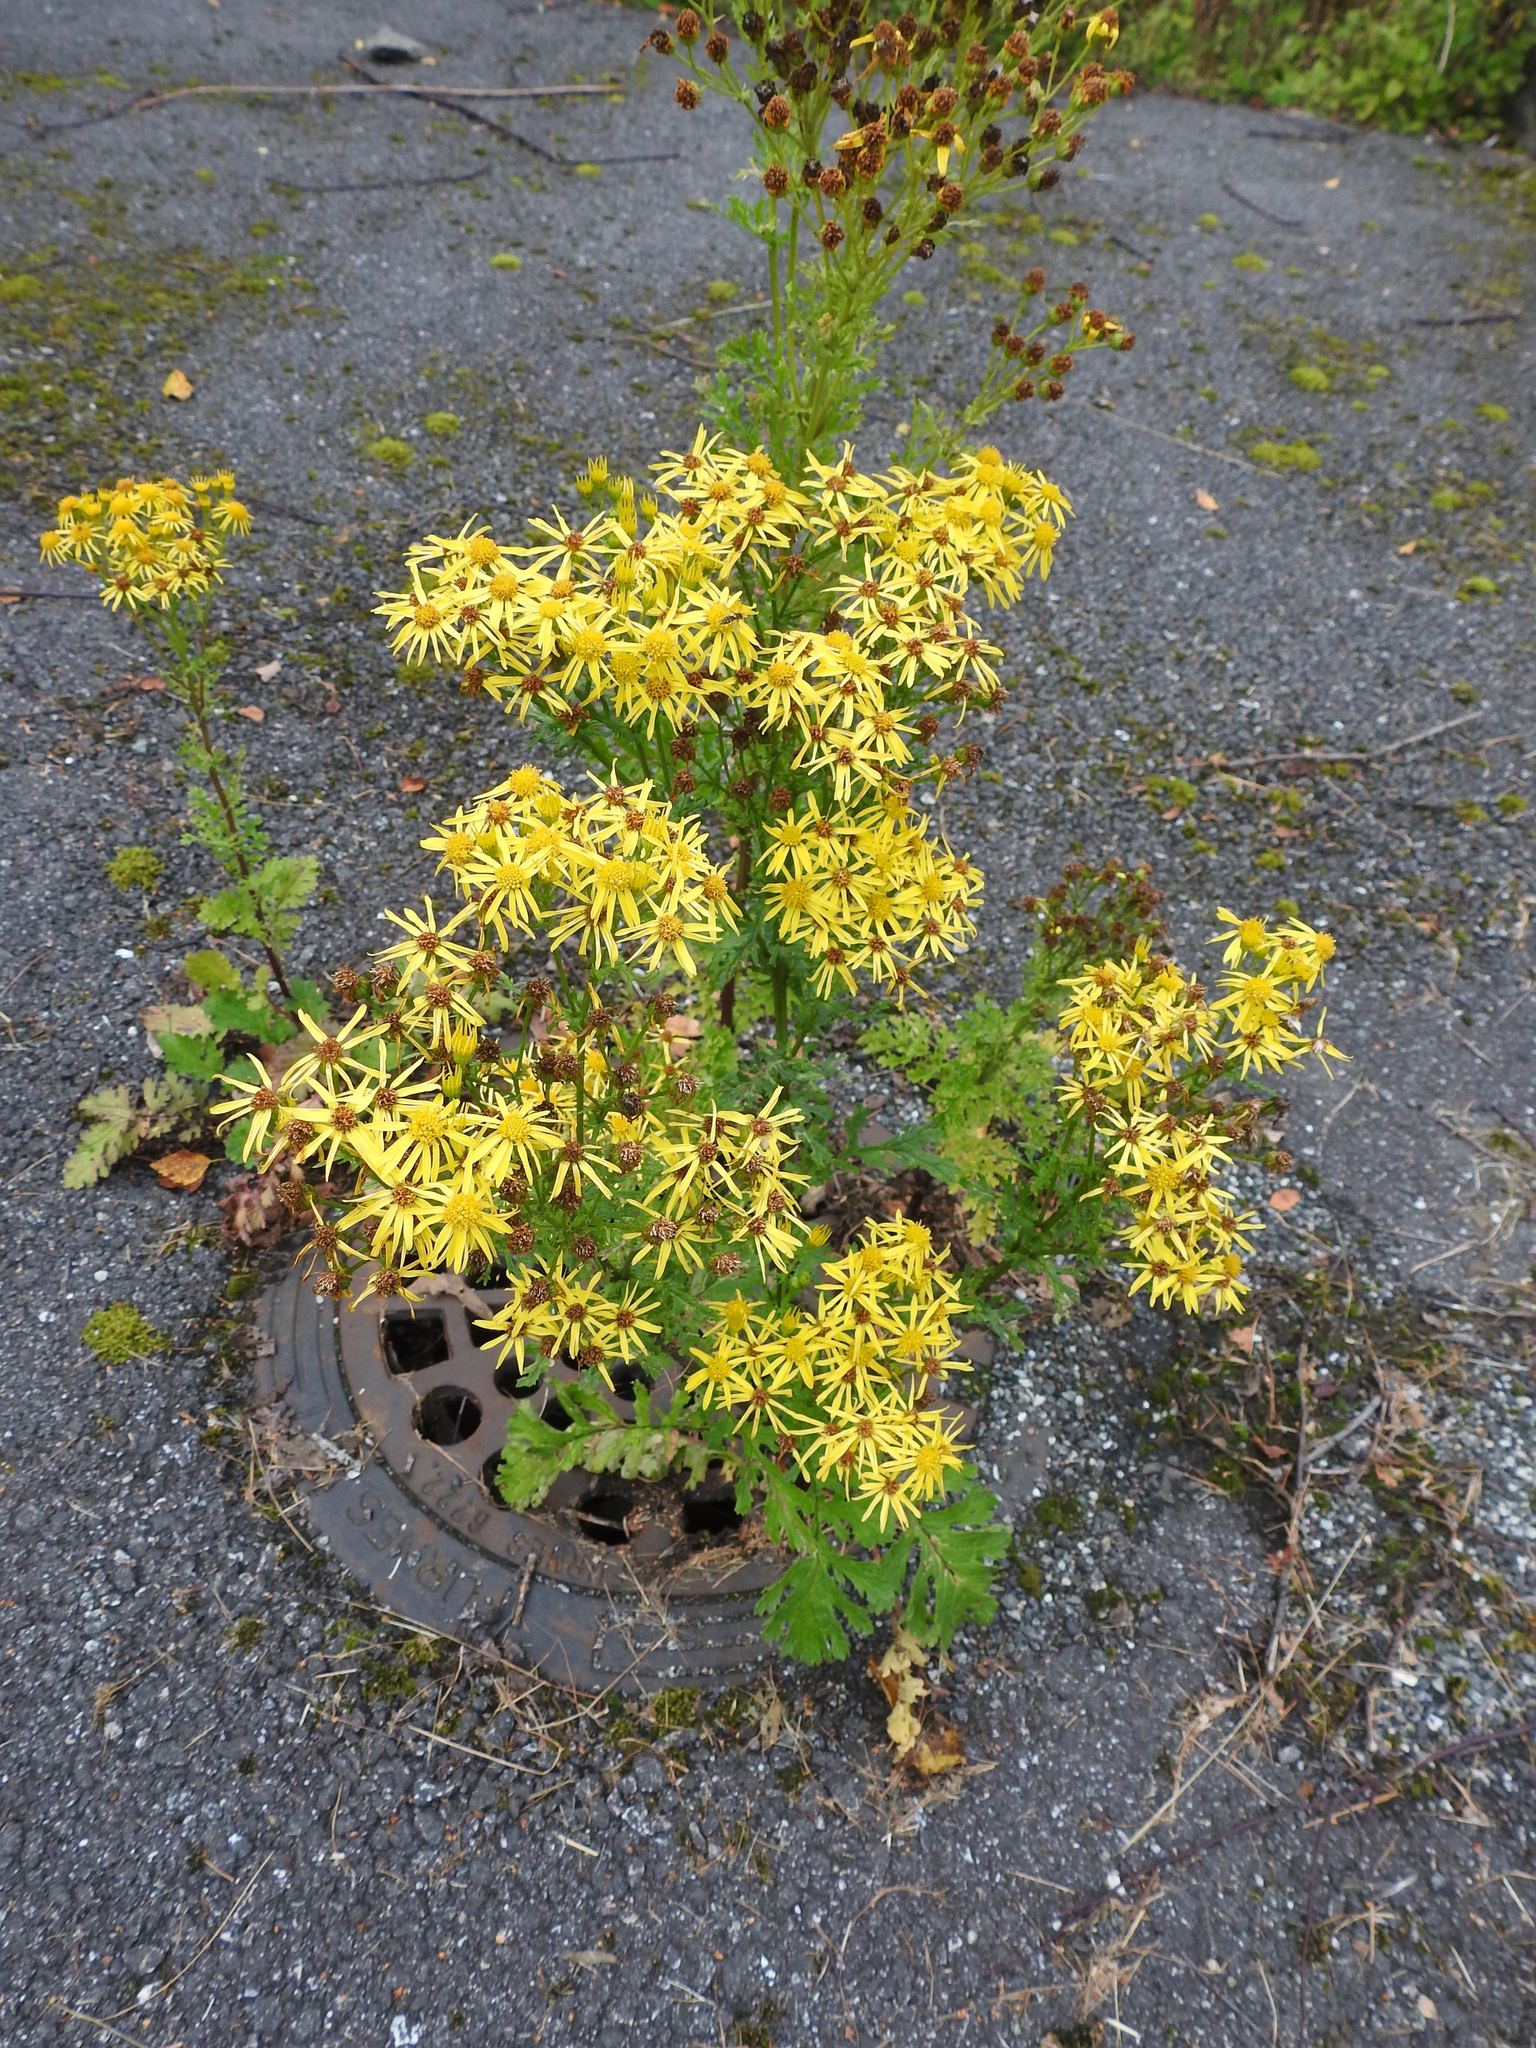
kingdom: Plantae
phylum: Tracheophyta
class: Magnoliopsida
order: Asterales
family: Asteraceae
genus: Jacobaea
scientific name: Jacobaea vulgaris
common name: Stinking willie
